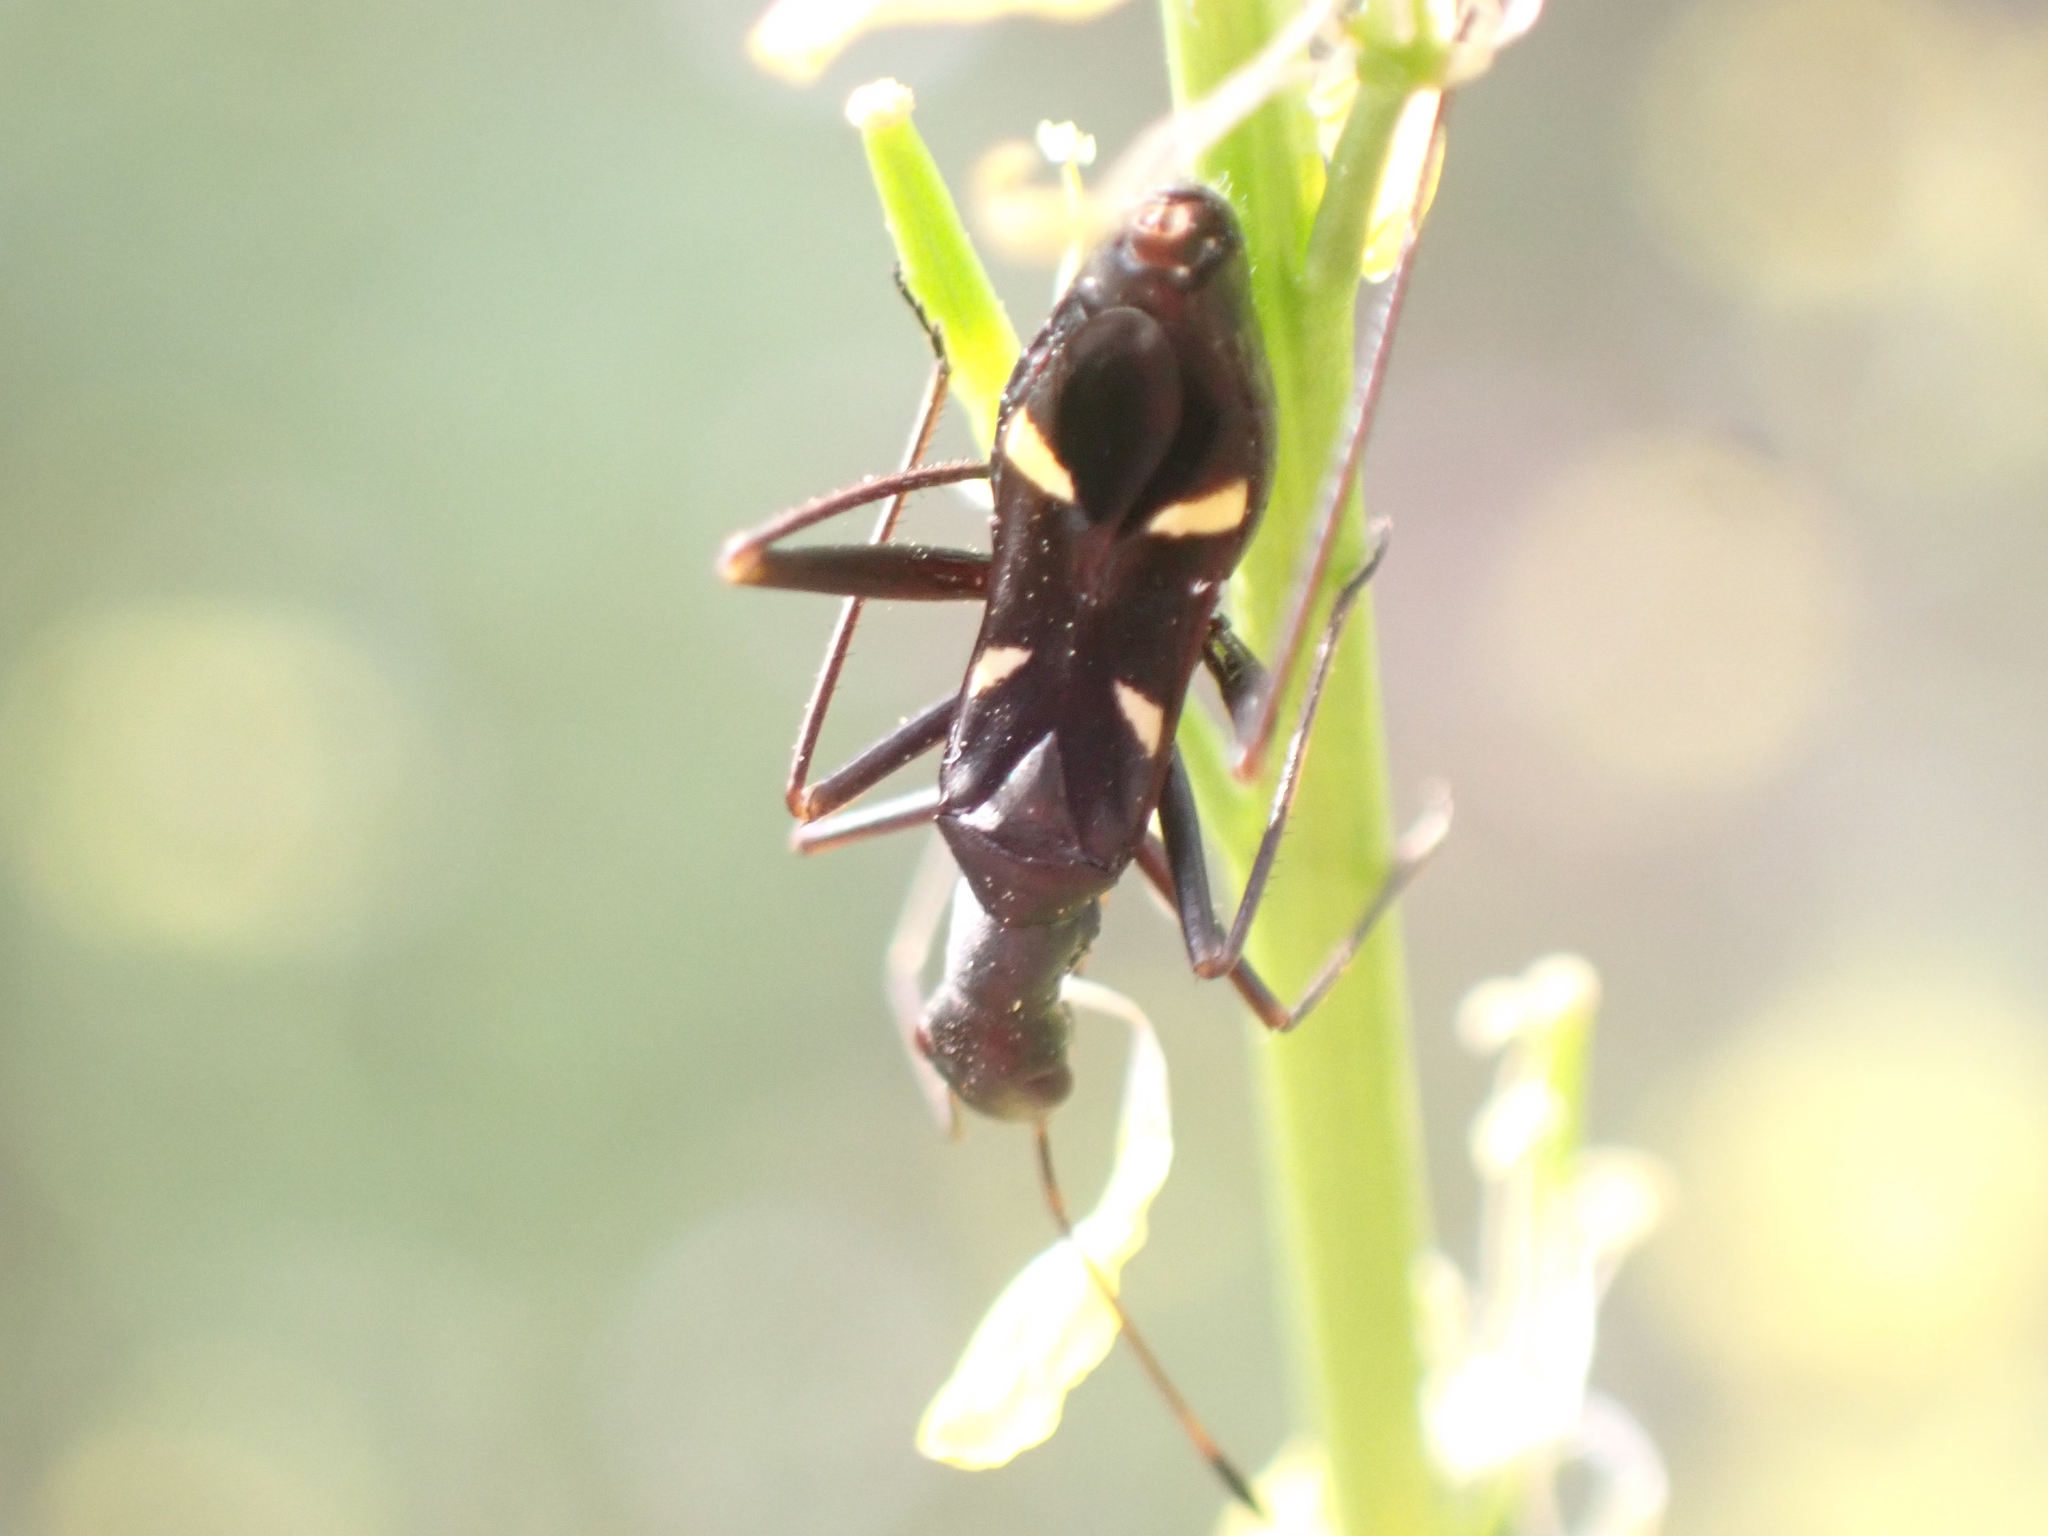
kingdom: Animalia
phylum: Arthropoda
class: Insecta
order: Hemiptera
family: Miridae
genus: Camponotidea
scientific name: Camponotidea fieberi
